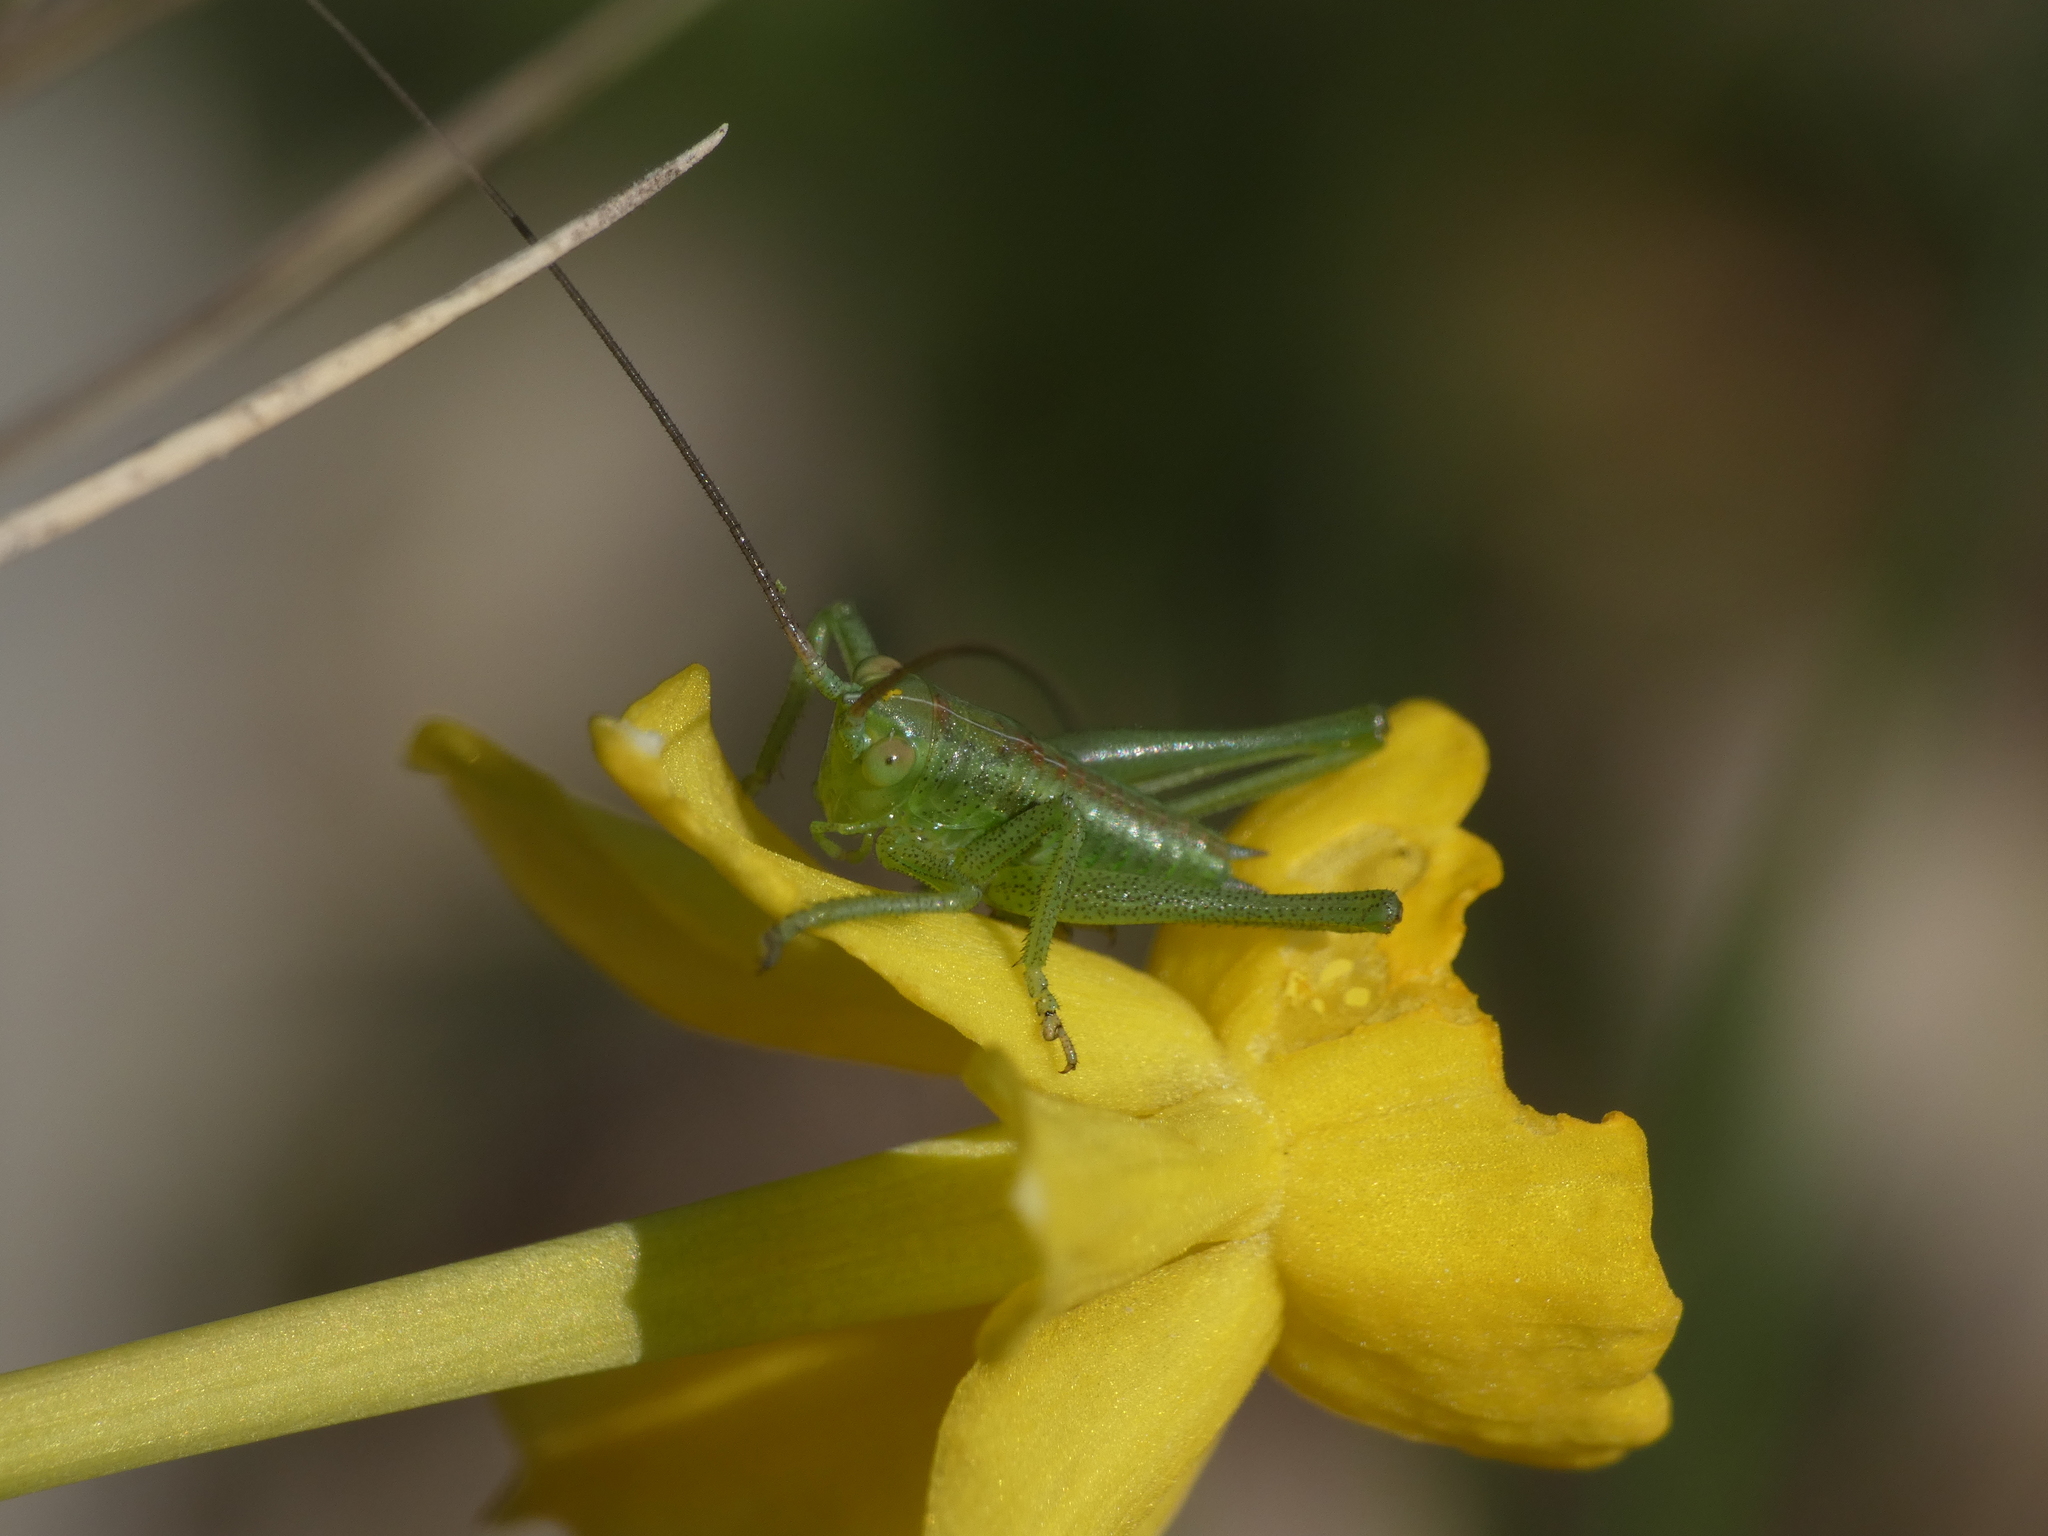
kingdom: Animalia
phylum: Arthropoda
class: Insecta
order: Orthoptera
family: Tettigoniidae
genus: Tettigonia
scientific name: Tettigonia viridissima
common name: Great green bush-cricket
